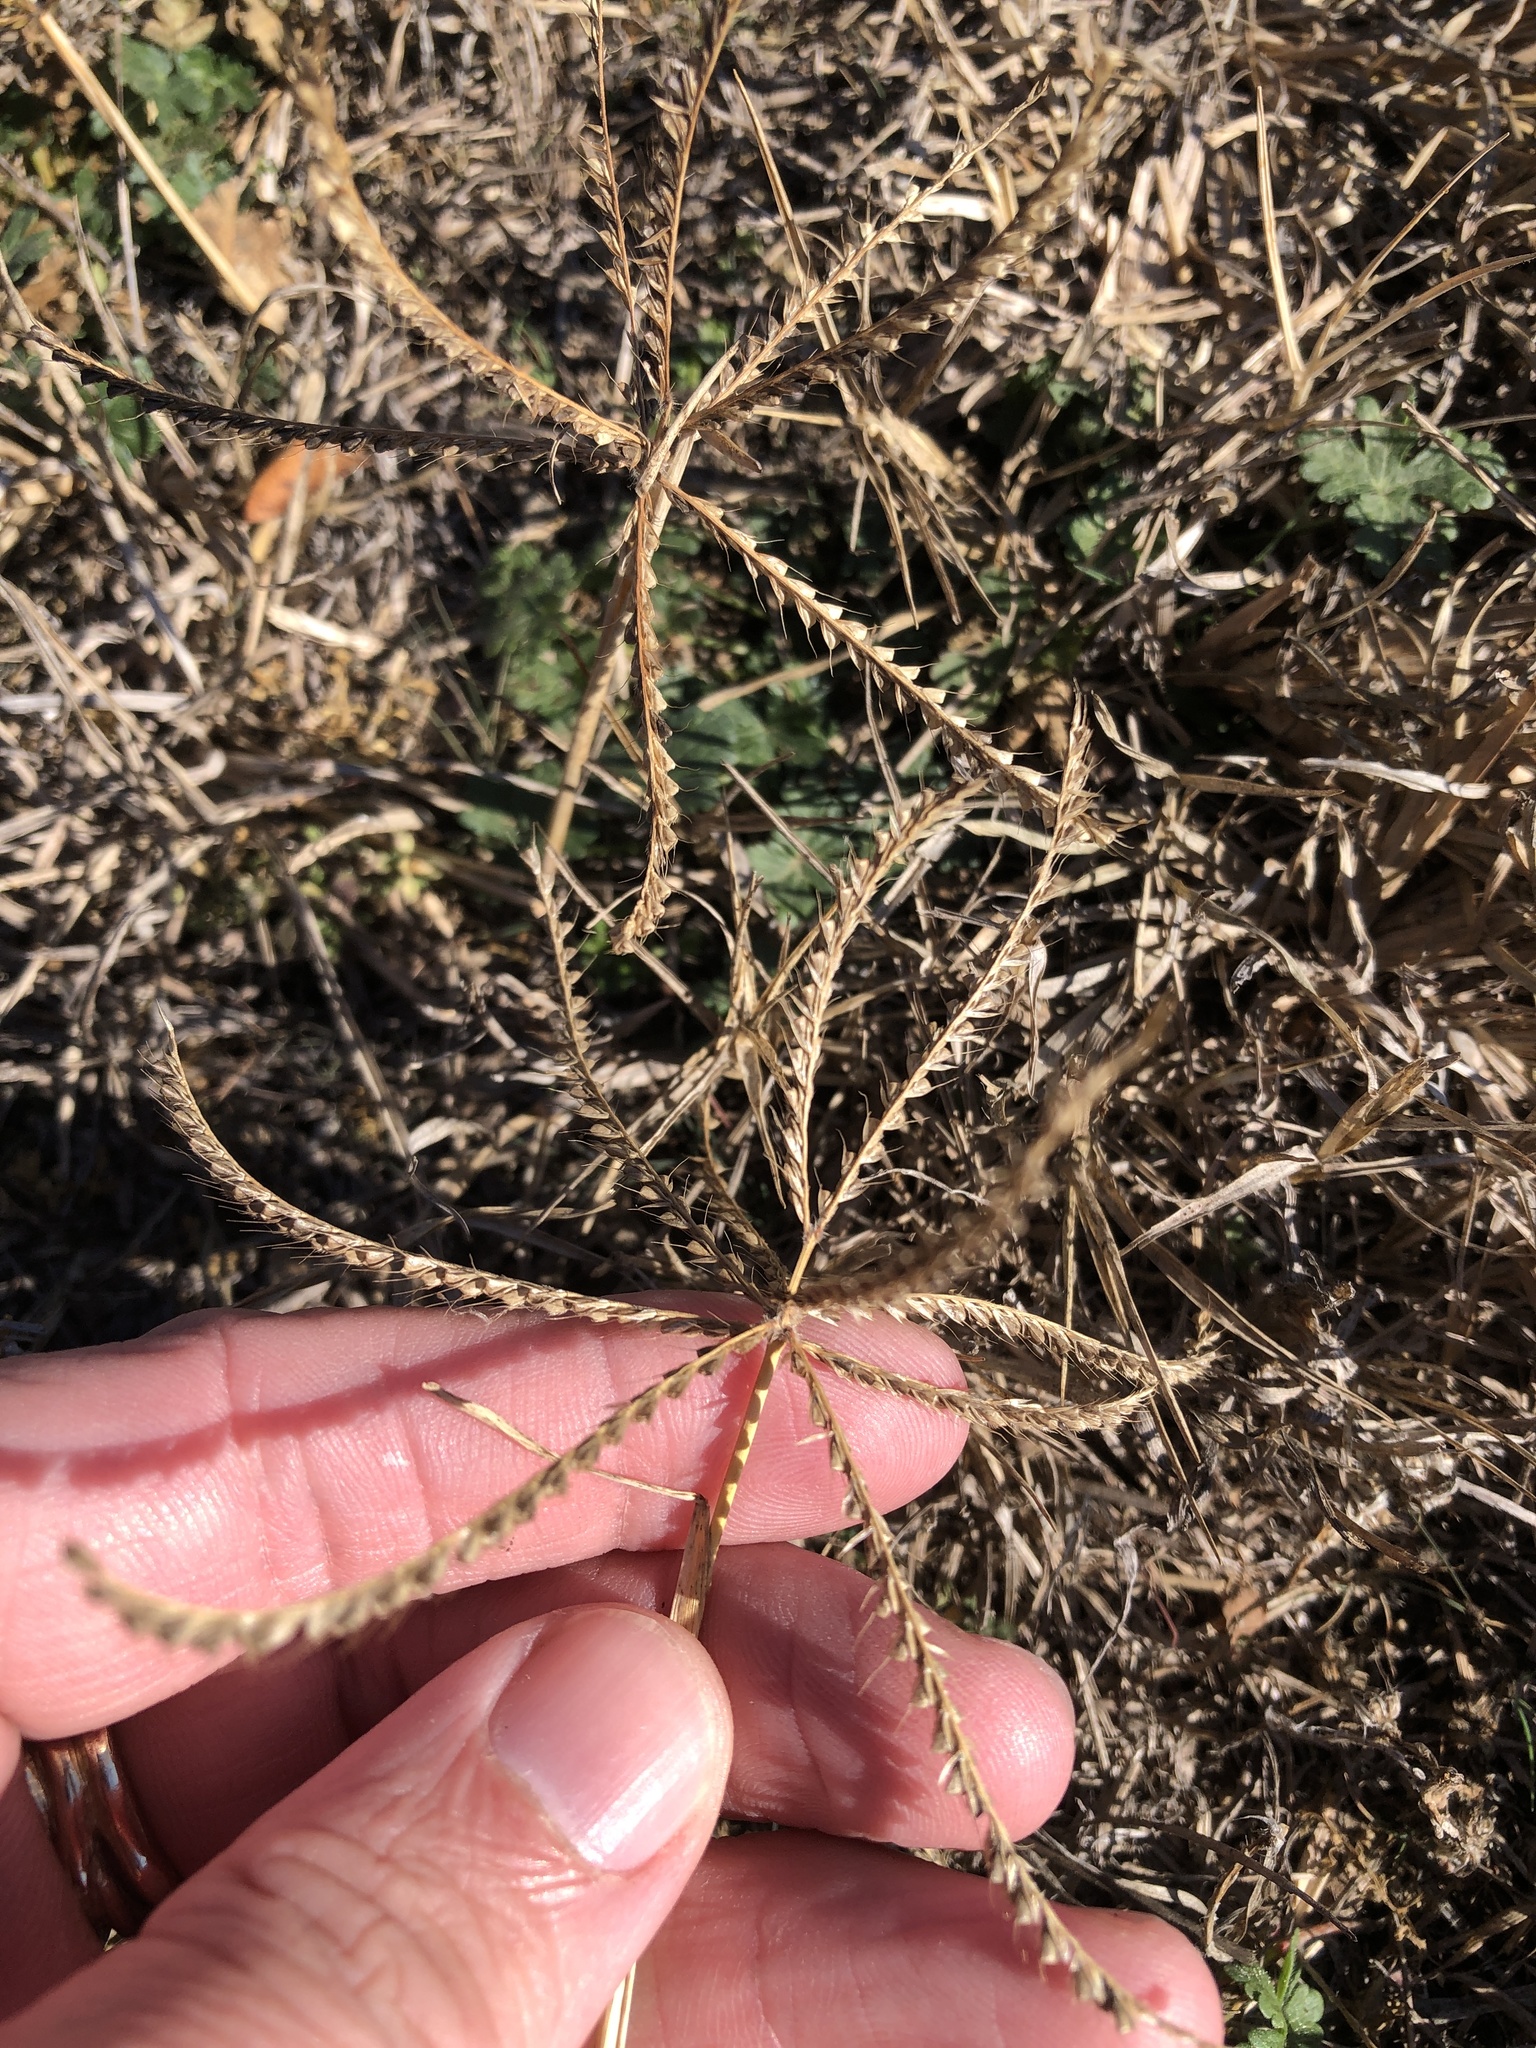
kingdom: Plantae
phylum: Tracheophyta
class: Liliopsida
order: Poales
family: Poaceae
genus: Chloris
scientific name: Chloris verticillata
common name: Tumble windmill grass
